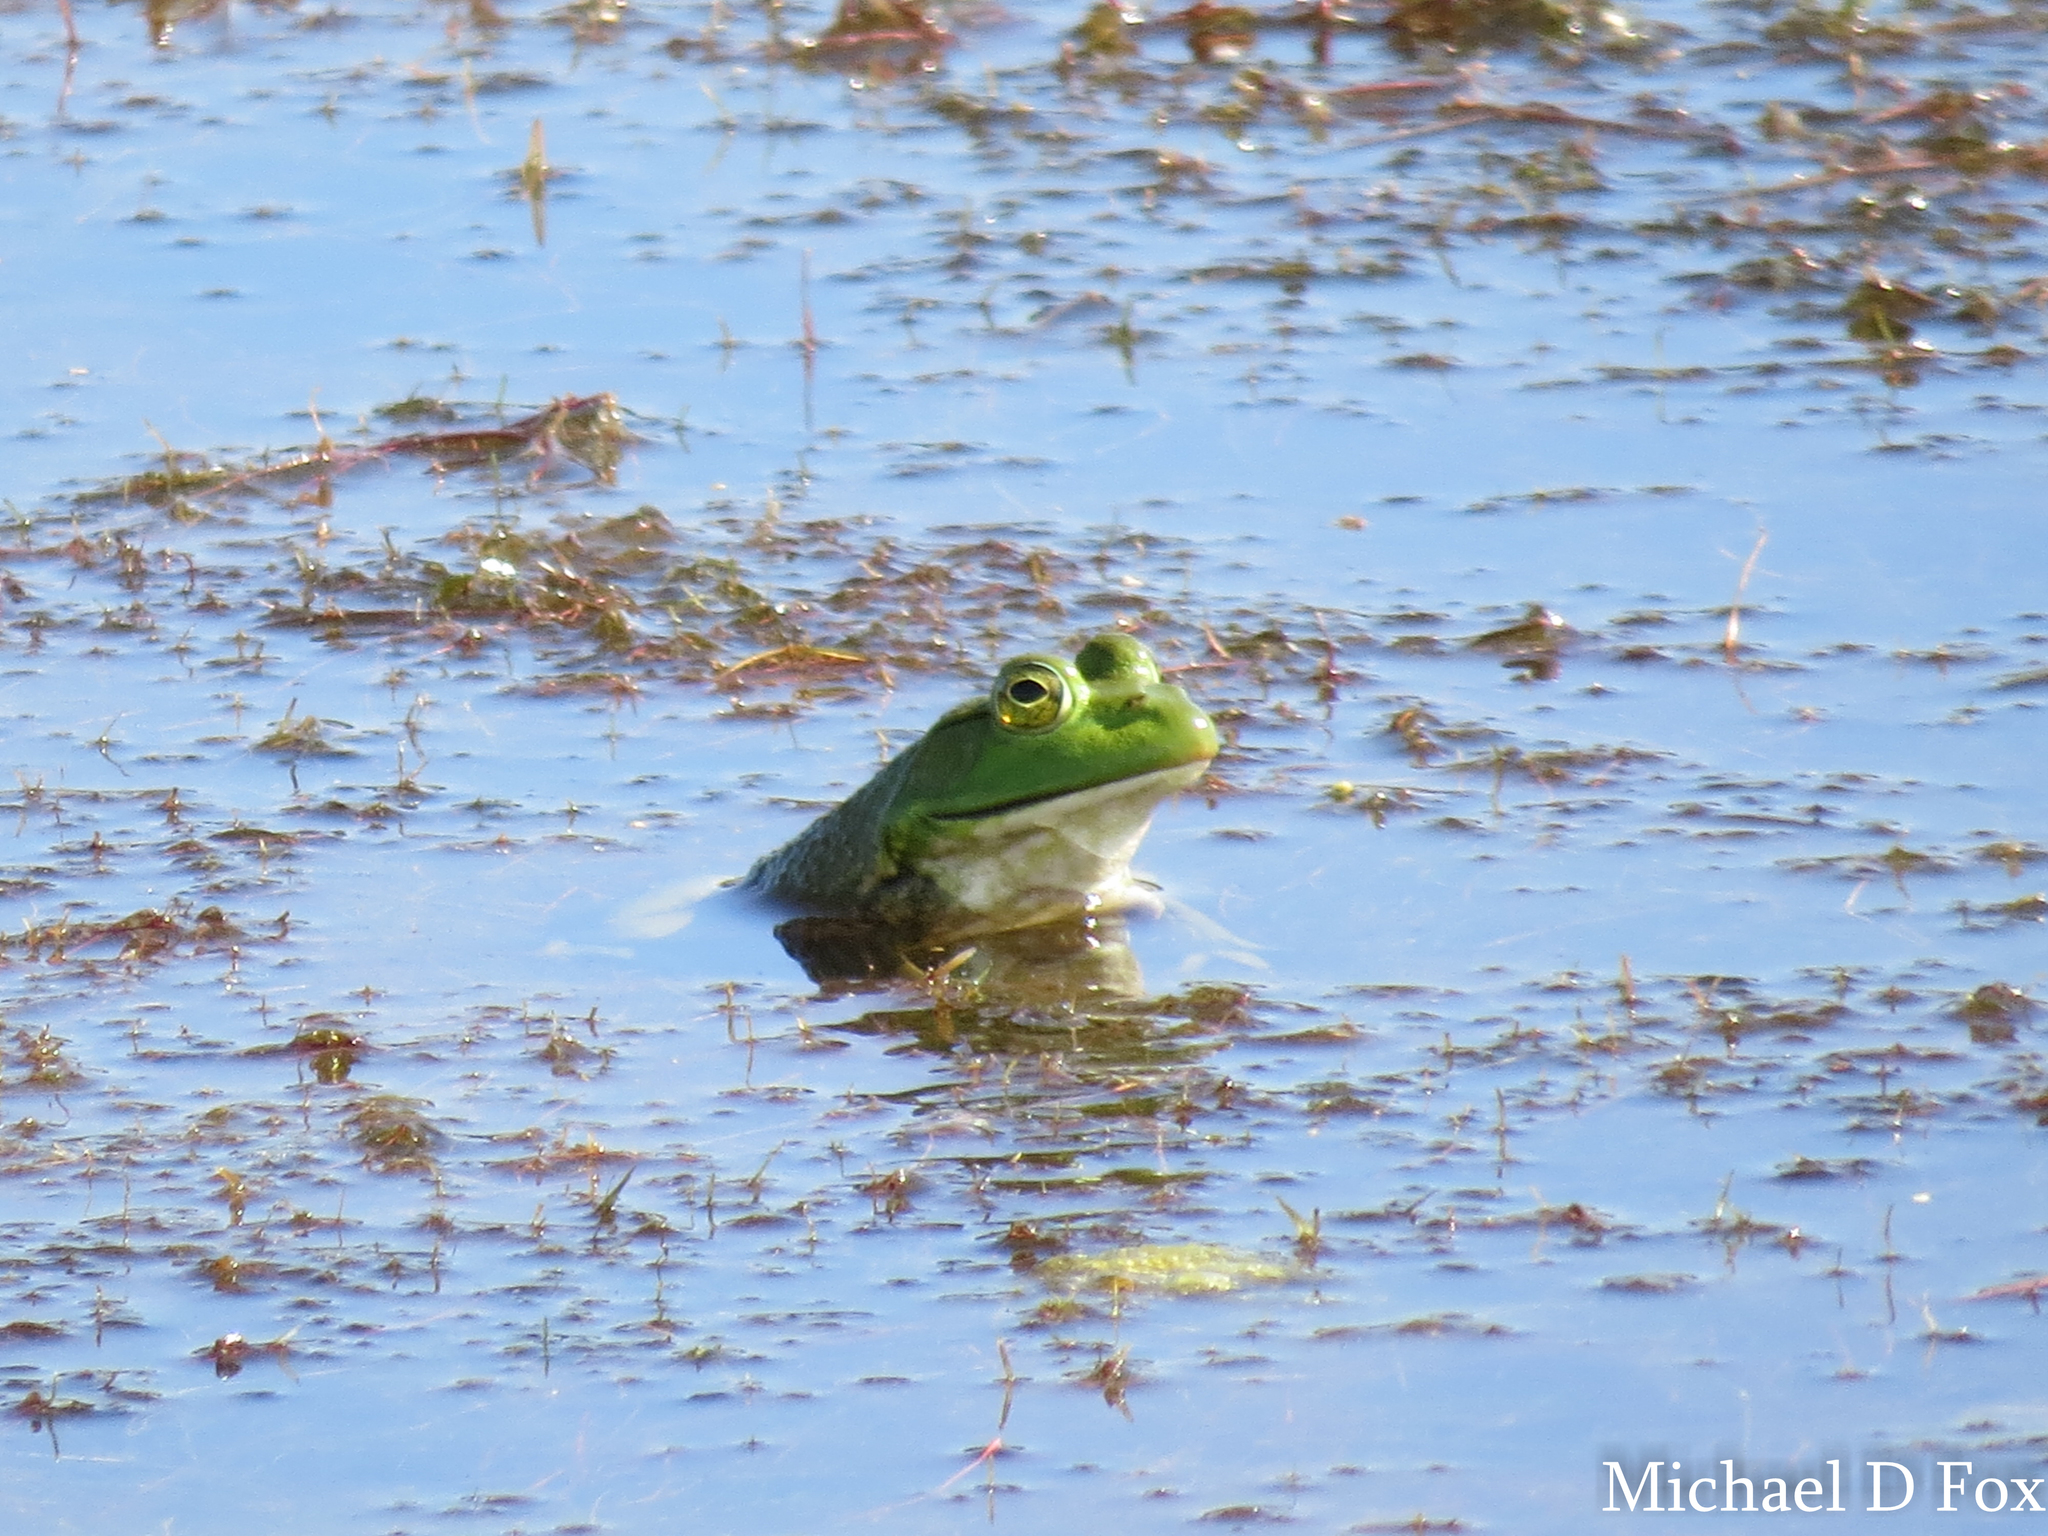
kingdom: Animalia
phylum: Chordata
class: Amphibia
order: Anura
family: Ranidae
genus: Lithobates
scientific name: Lithobates catesbeianus
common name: American bullfrog
